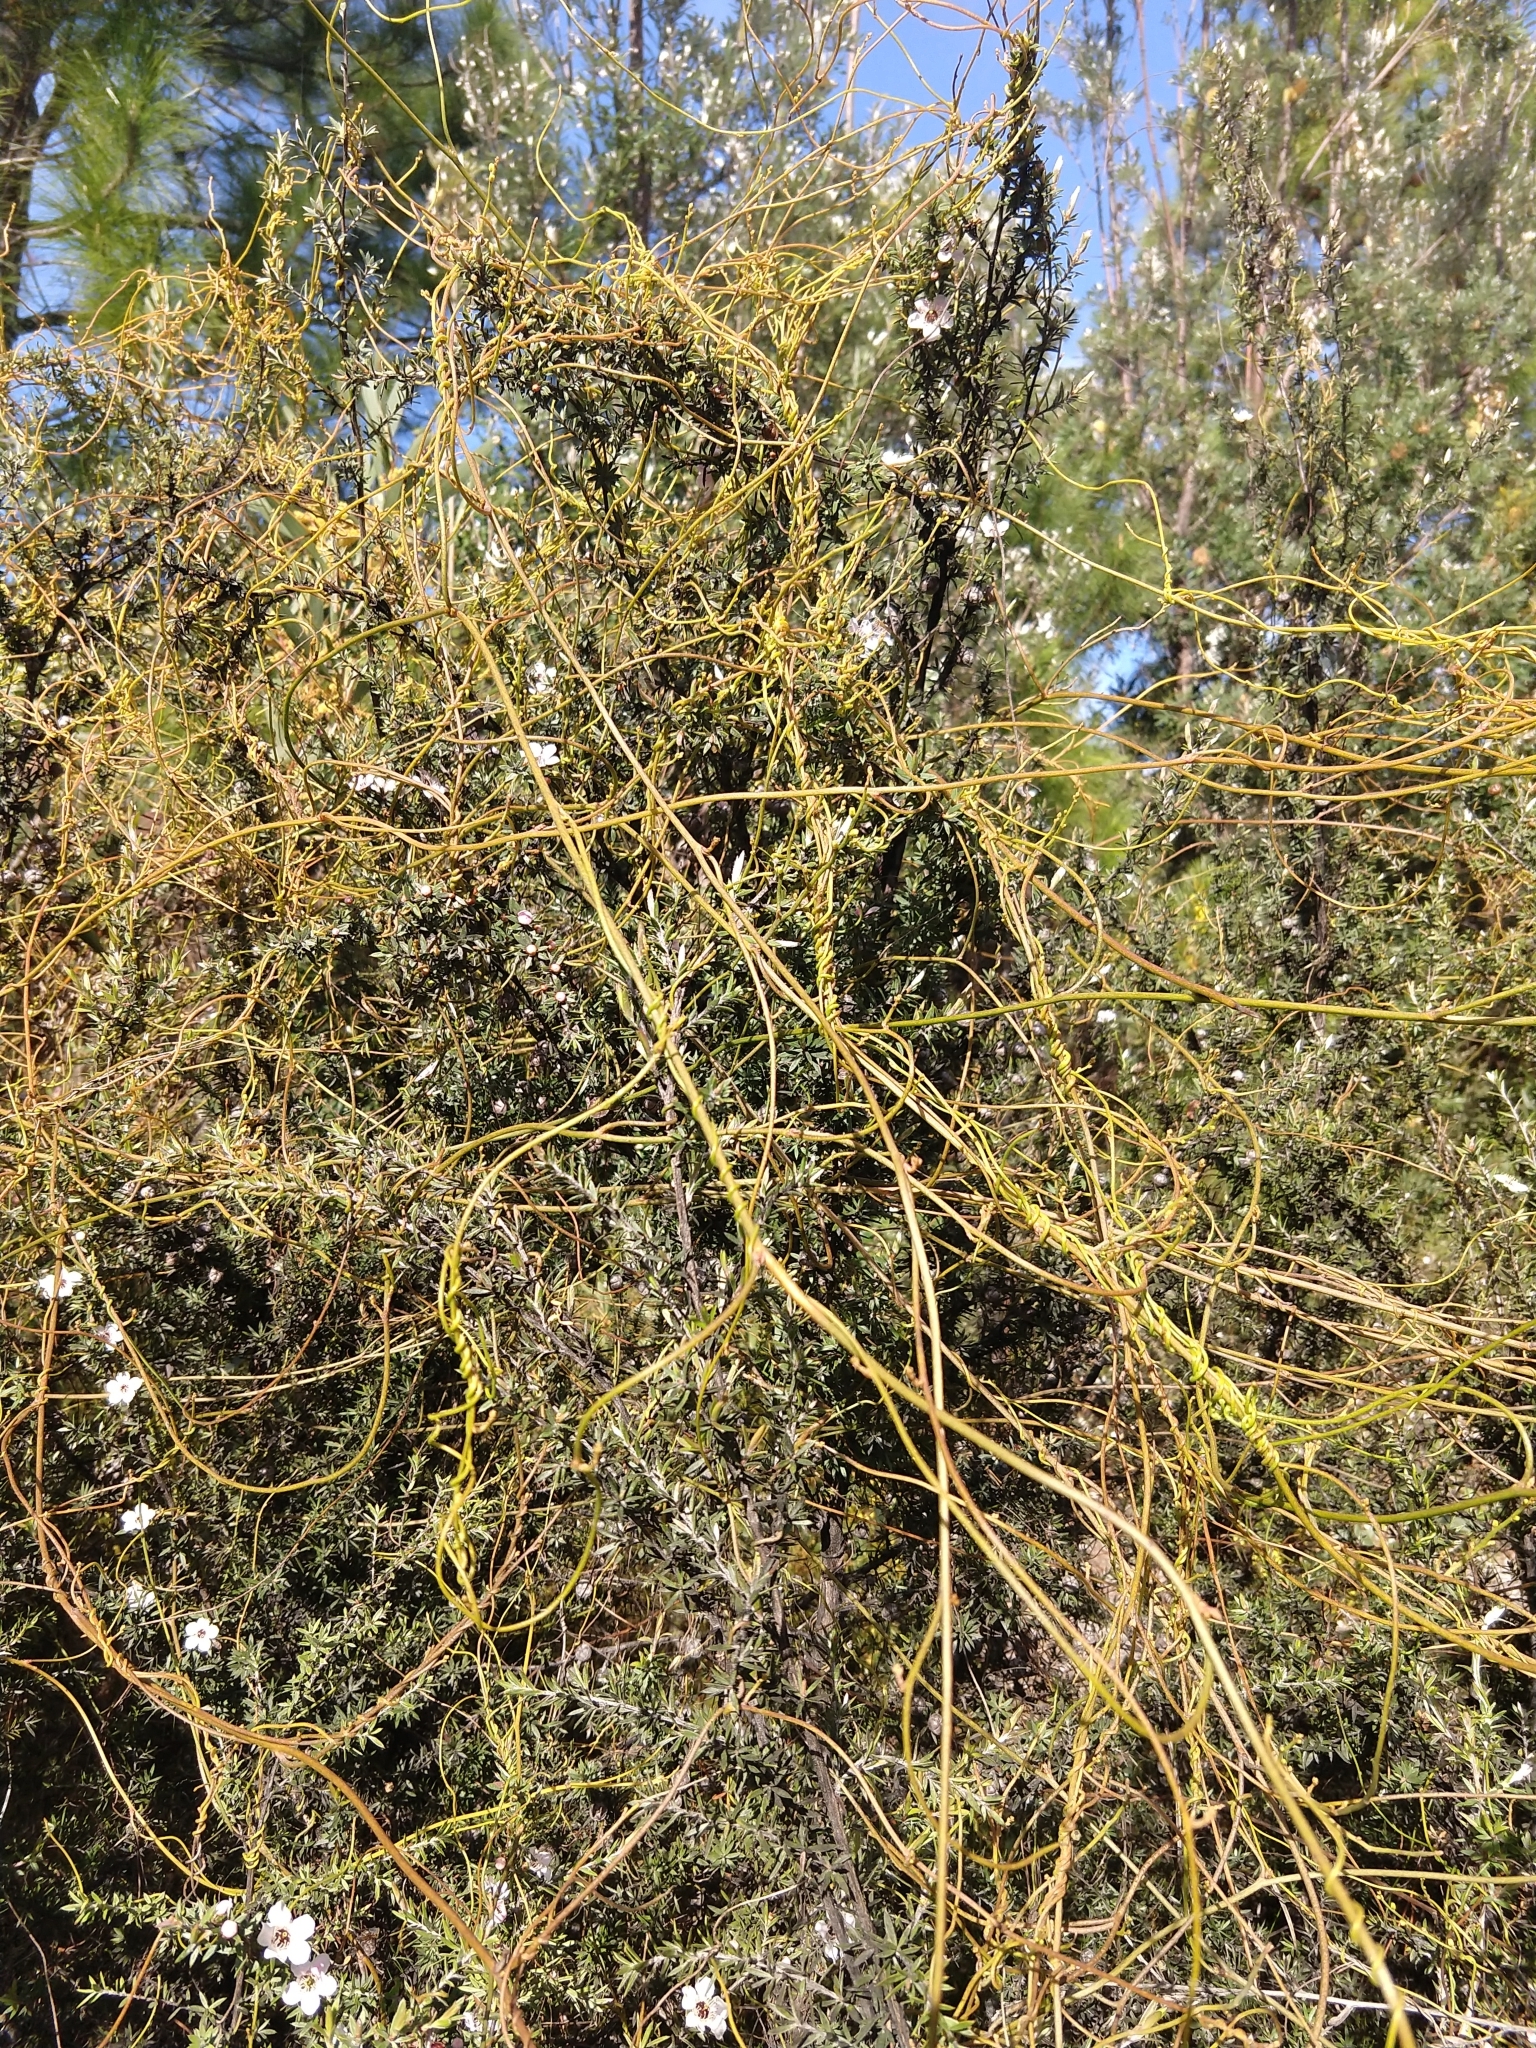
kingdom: Plantae
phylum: Tracheophyta
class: Magnoliopsida
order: Laurales
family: Lauraceae
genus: Cassytha
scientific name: Cassytha paniculata
